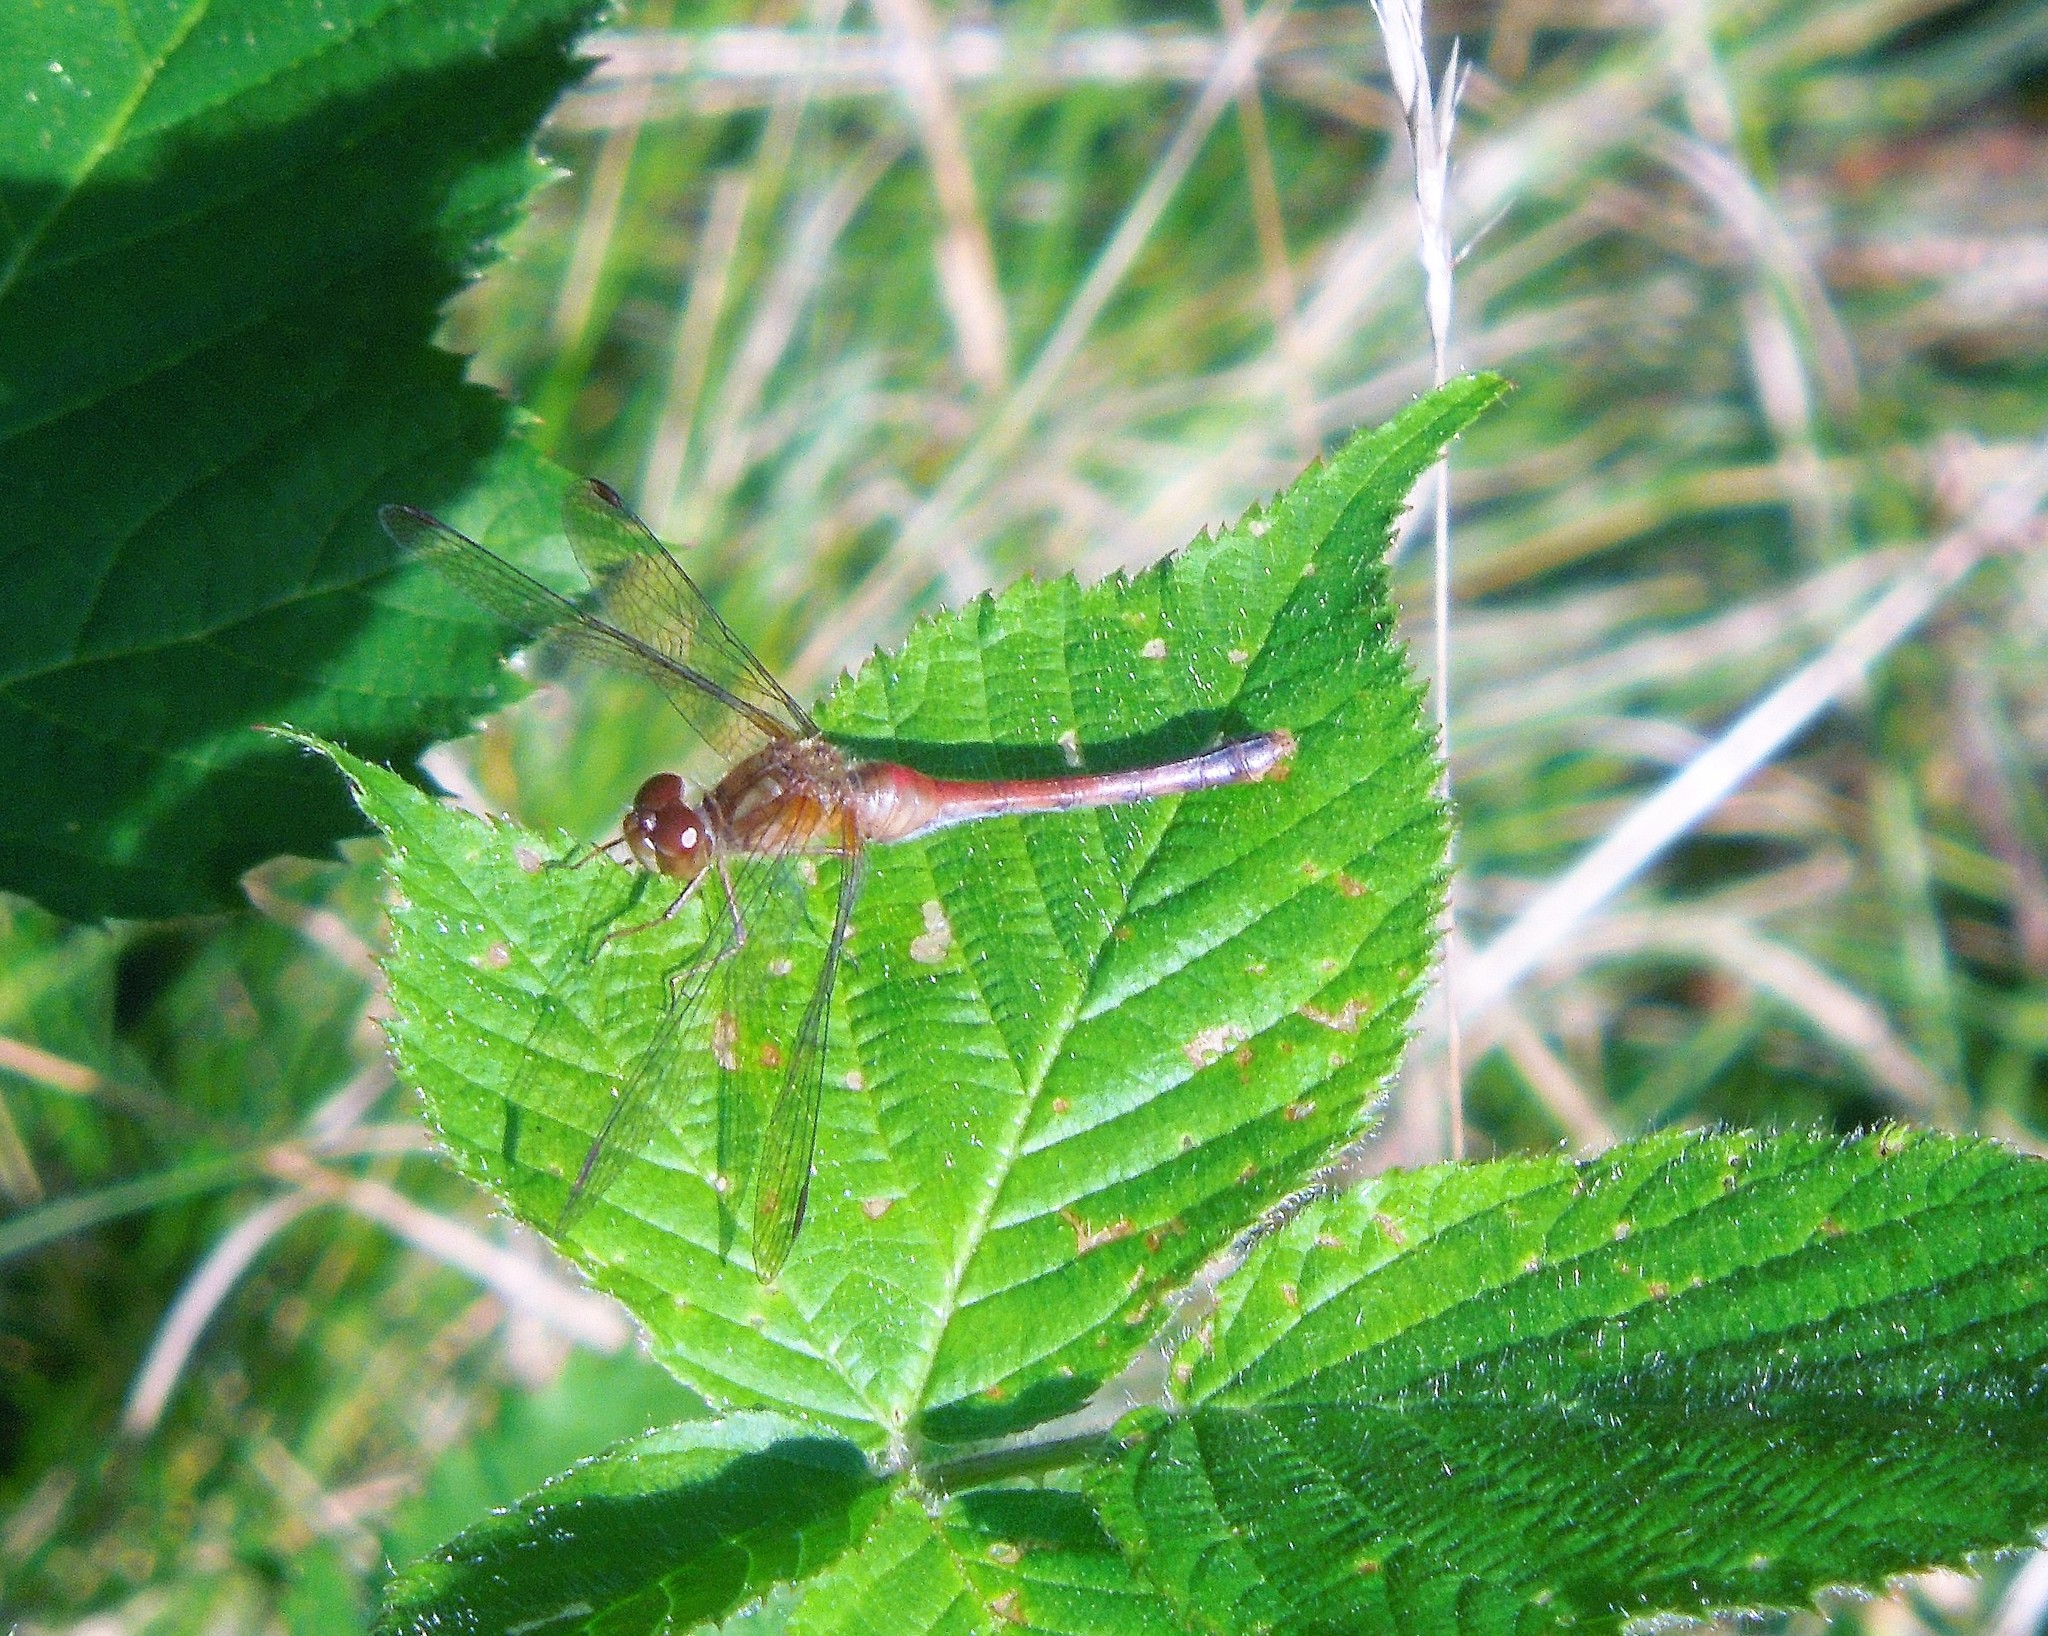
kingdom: Animalia
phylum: Arthropoda
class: Insecta
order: Odonata
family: Libellulidae
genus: Sympetrum
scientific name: Sympetrum
